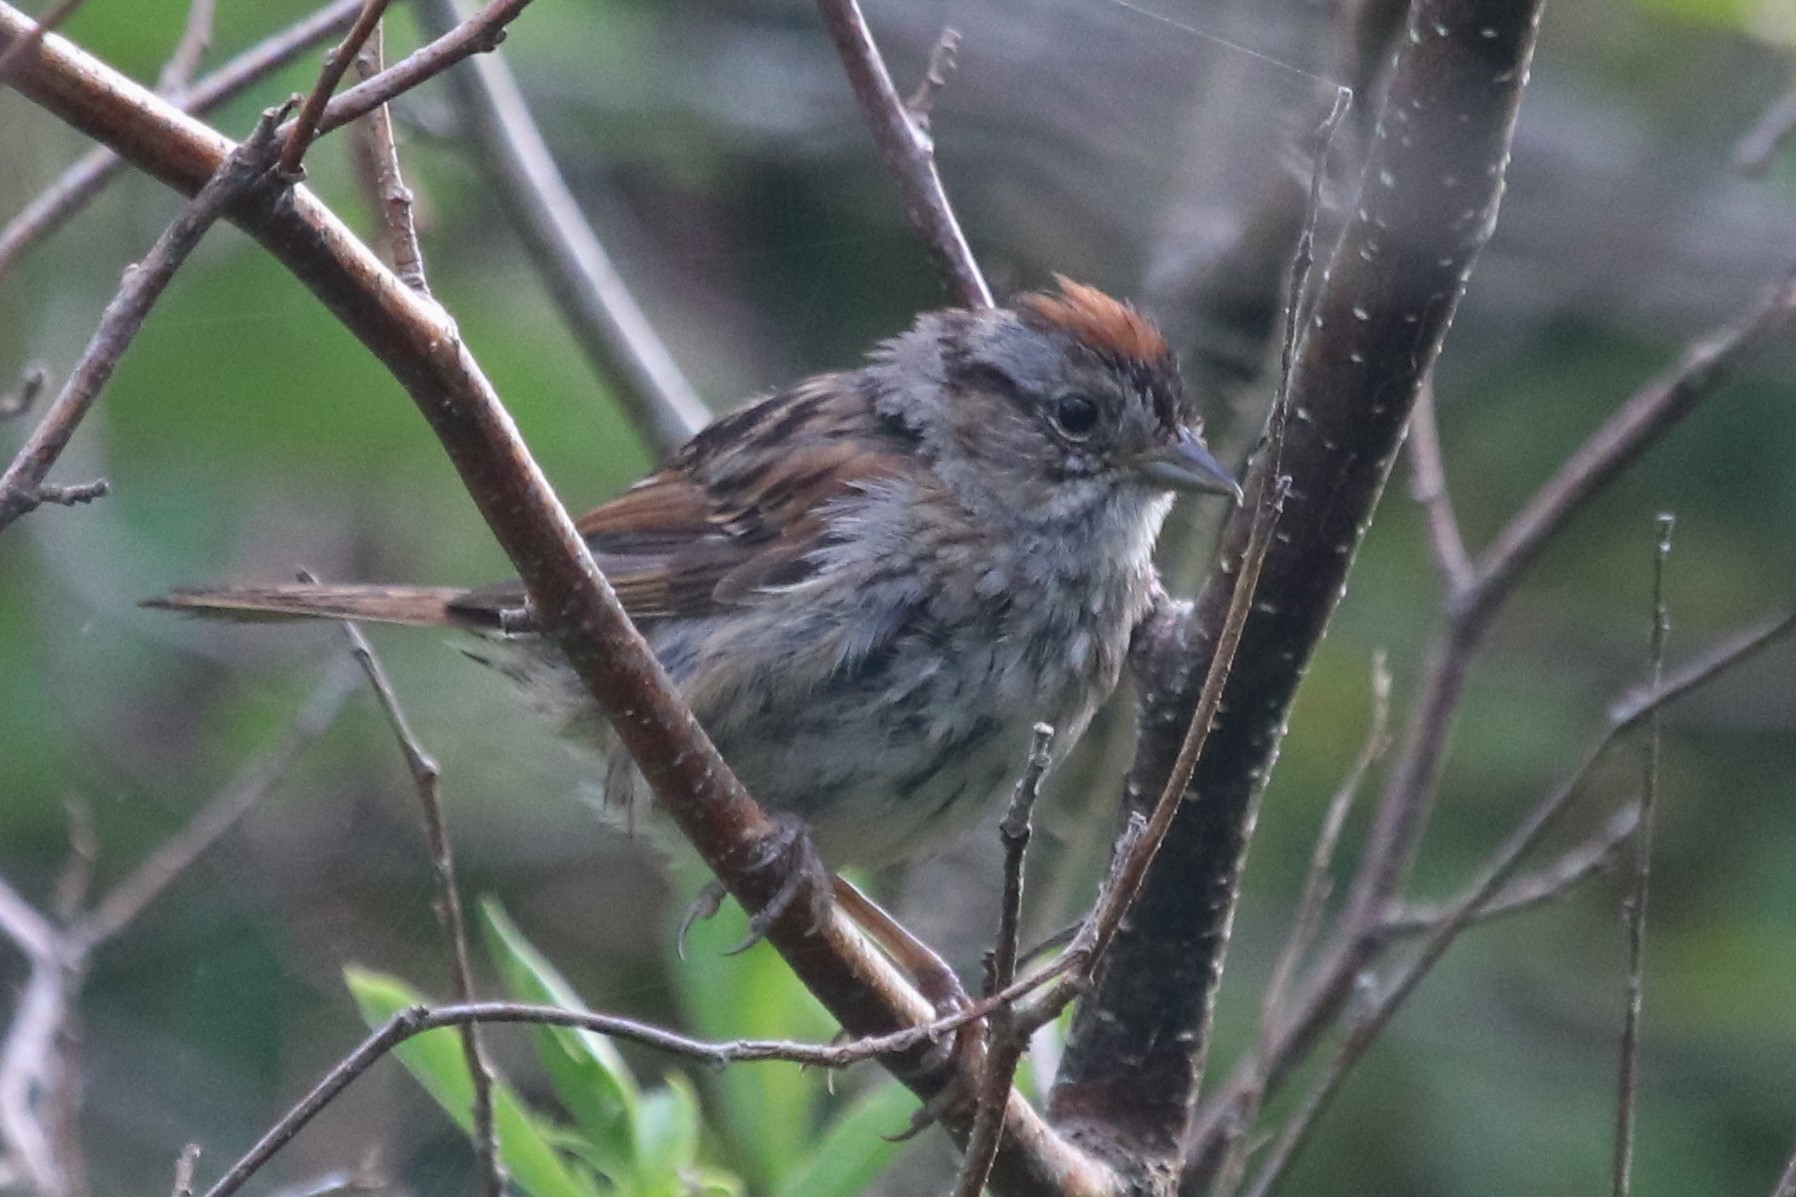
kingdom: Animalia
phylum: Chordata
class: Aves
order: Passeriformes
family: Passerellidae
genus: Melospiza
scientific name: Melospiza georgiana
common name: Swamp sparrow
